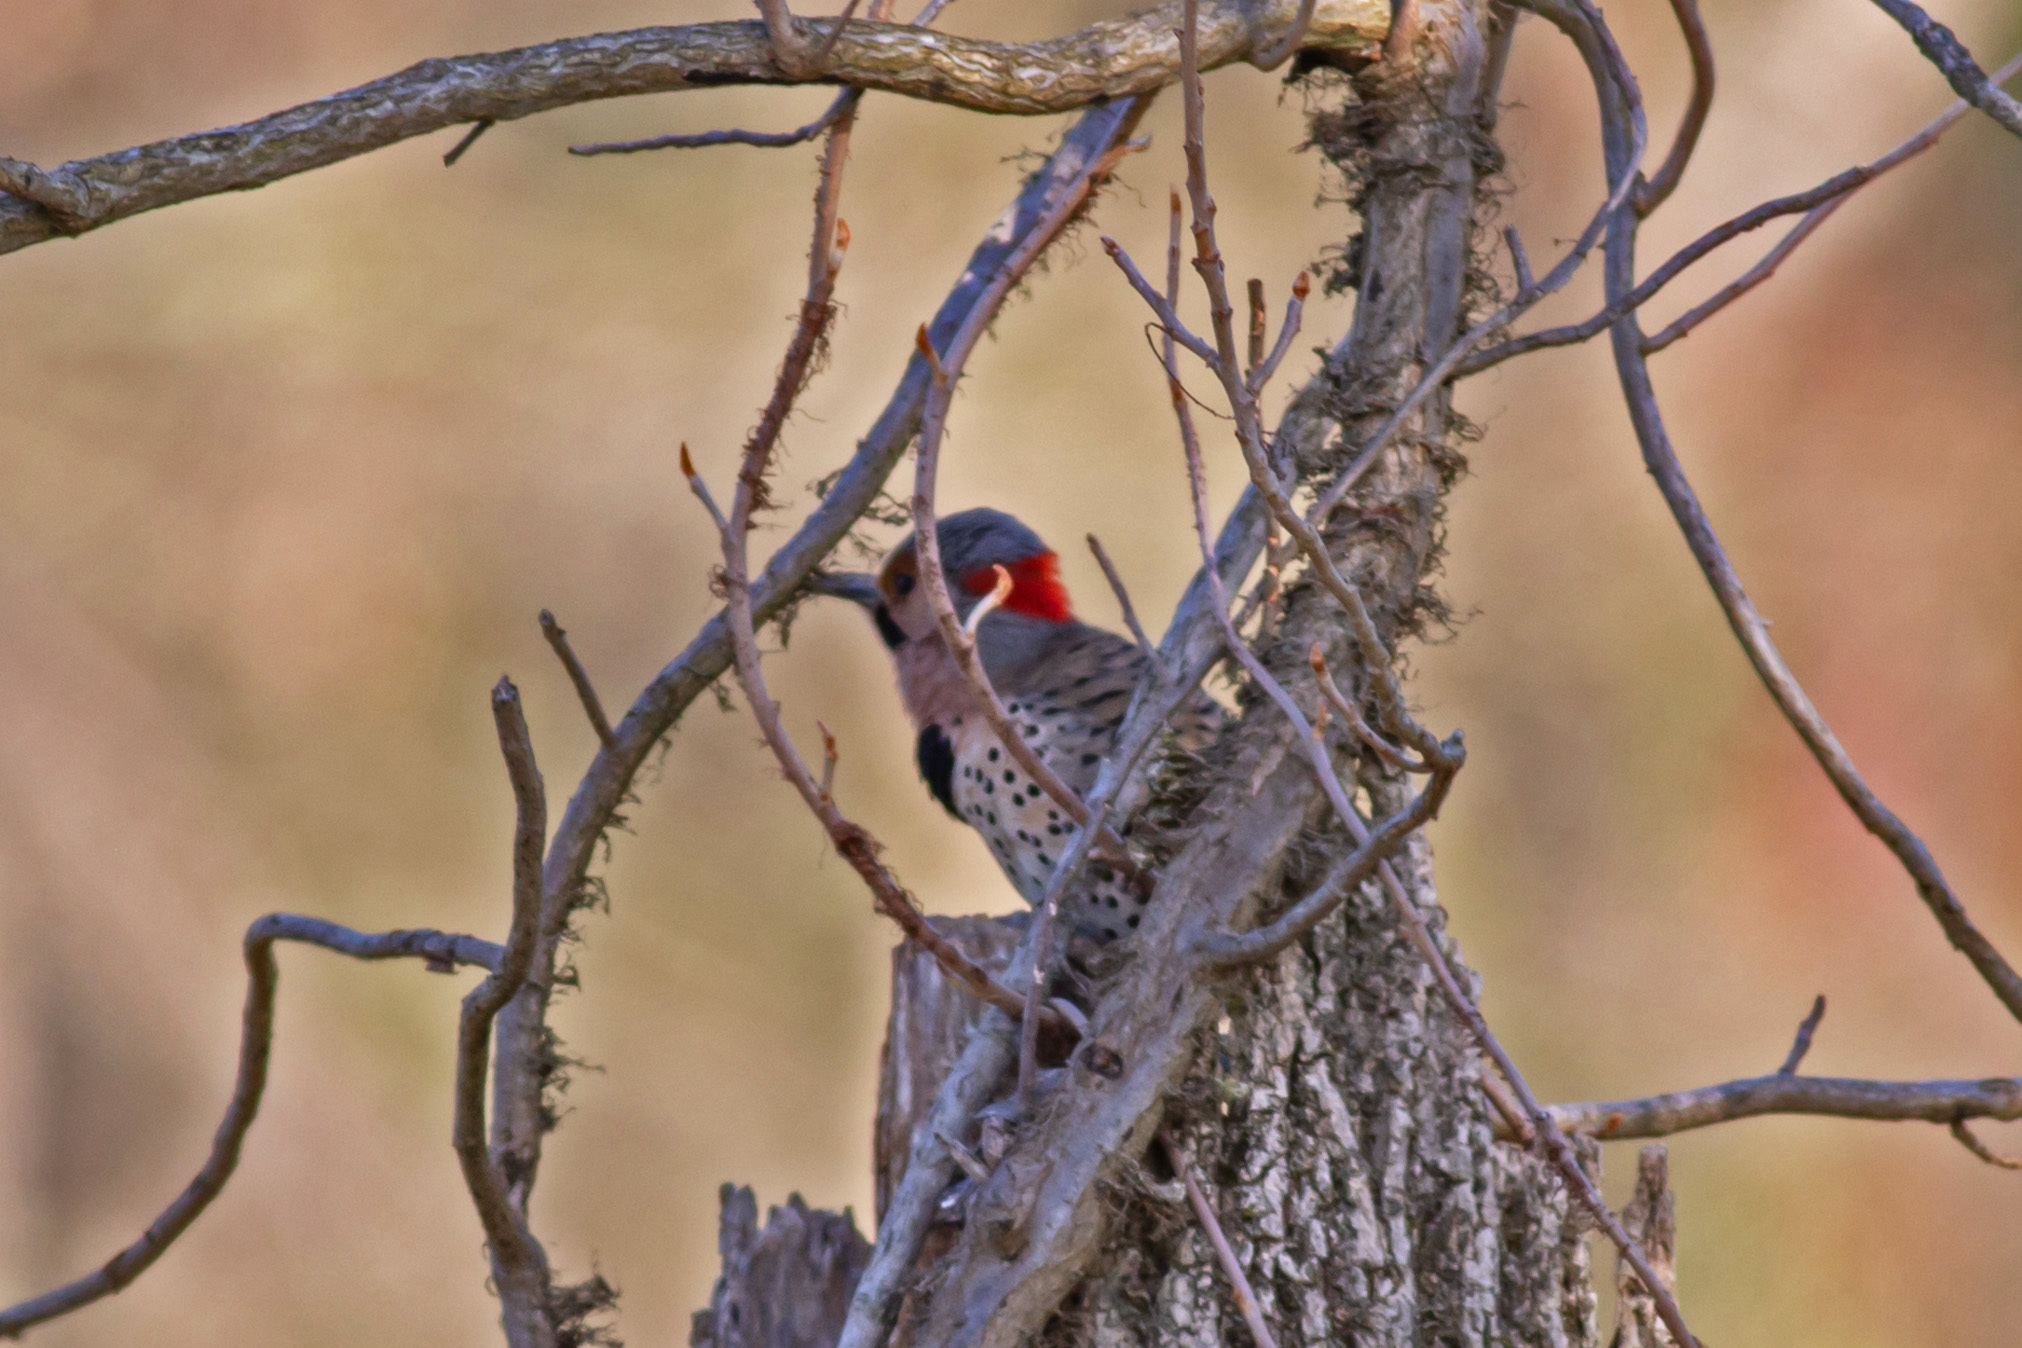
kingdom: Animalia
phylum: Chordata
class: Aves
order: Piciformes
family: Picidae
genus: Colaptes
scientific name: Colaptes auratus
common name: Northern flicker
